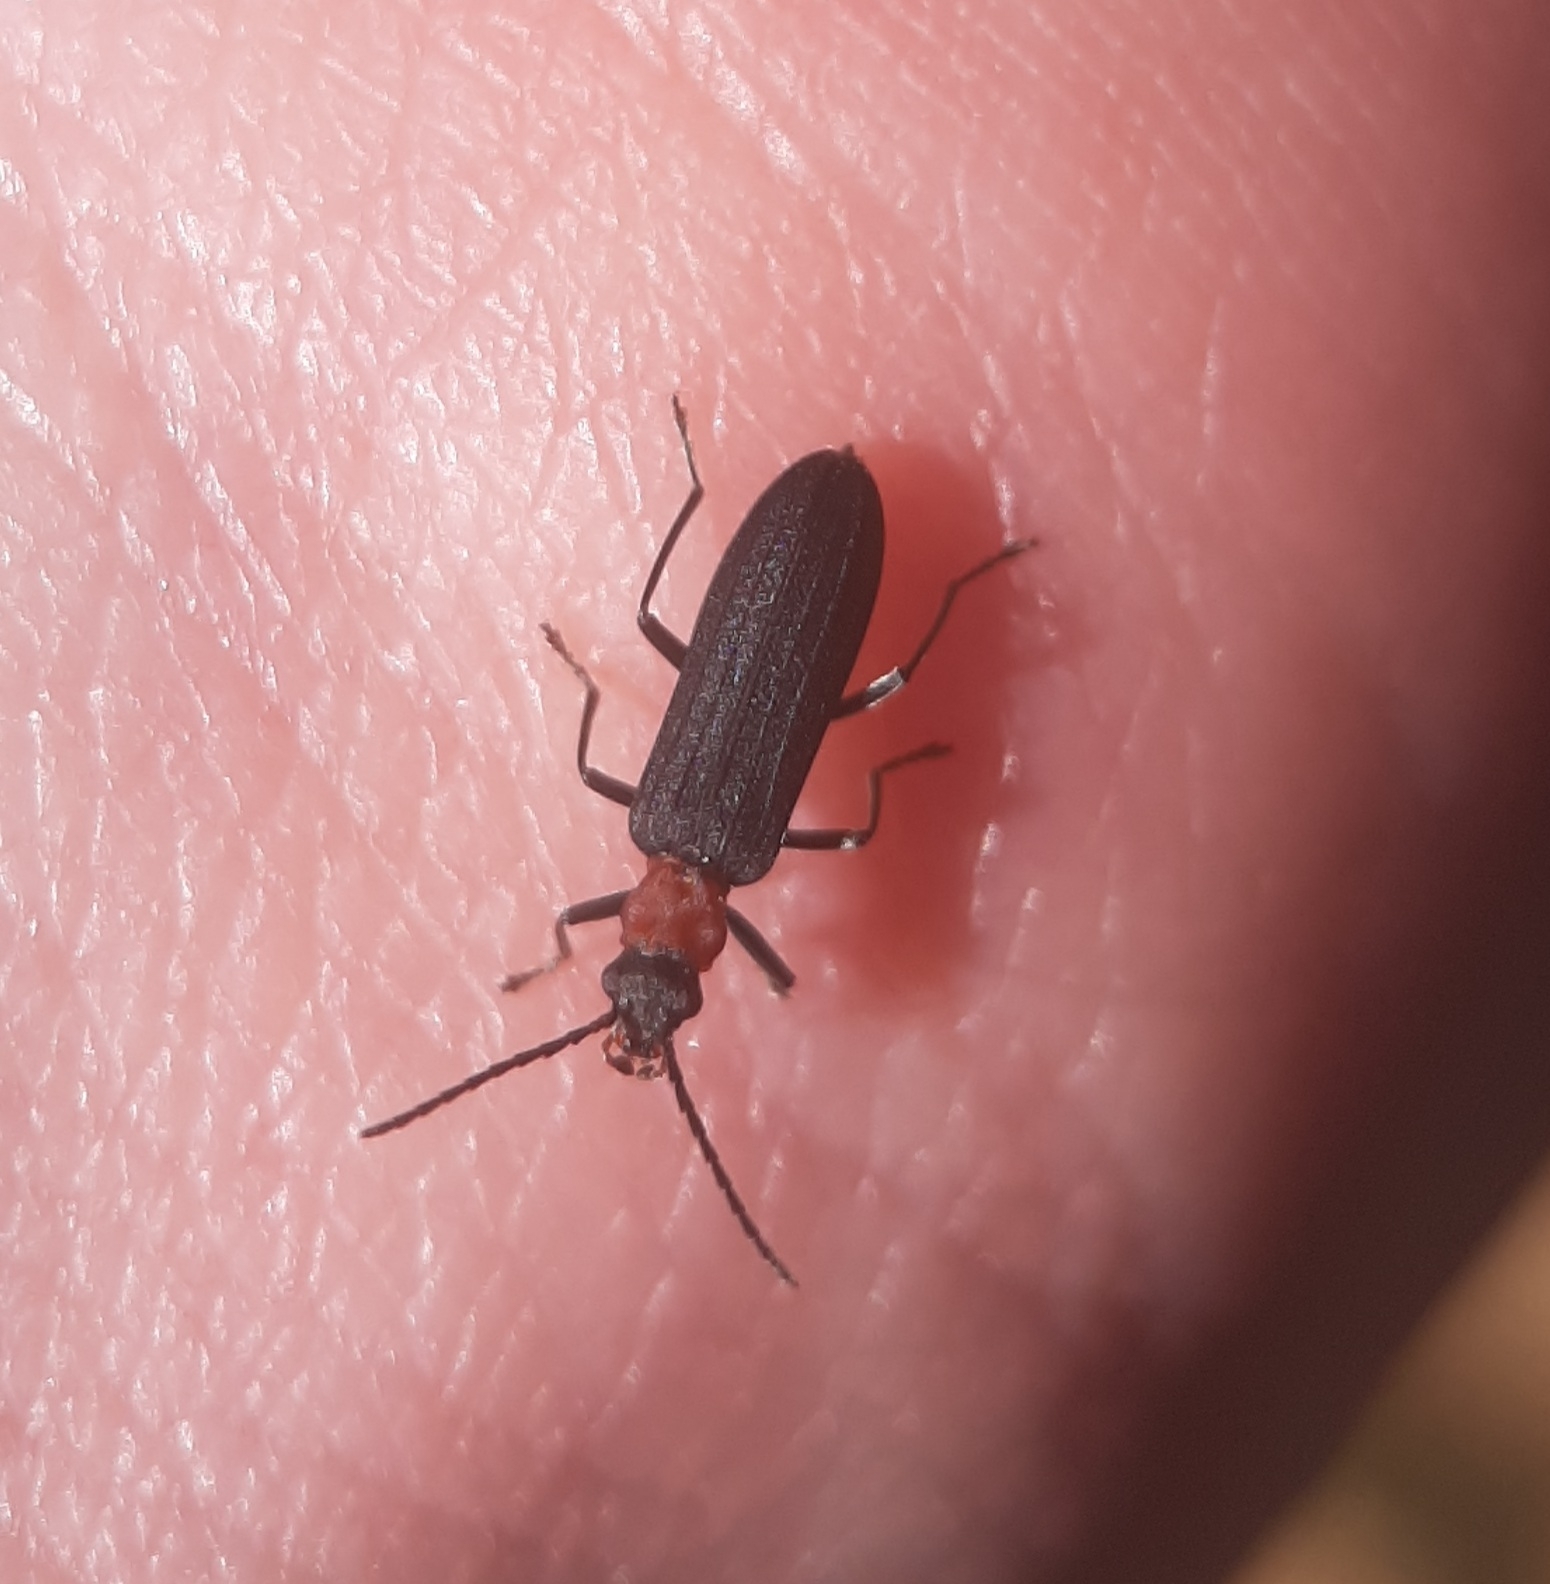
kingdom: Animalia
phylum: Arthropoda
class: Insecta
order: Coleoptera
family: Oedemeridae
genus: Ischnomera
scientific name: Ischnomera
